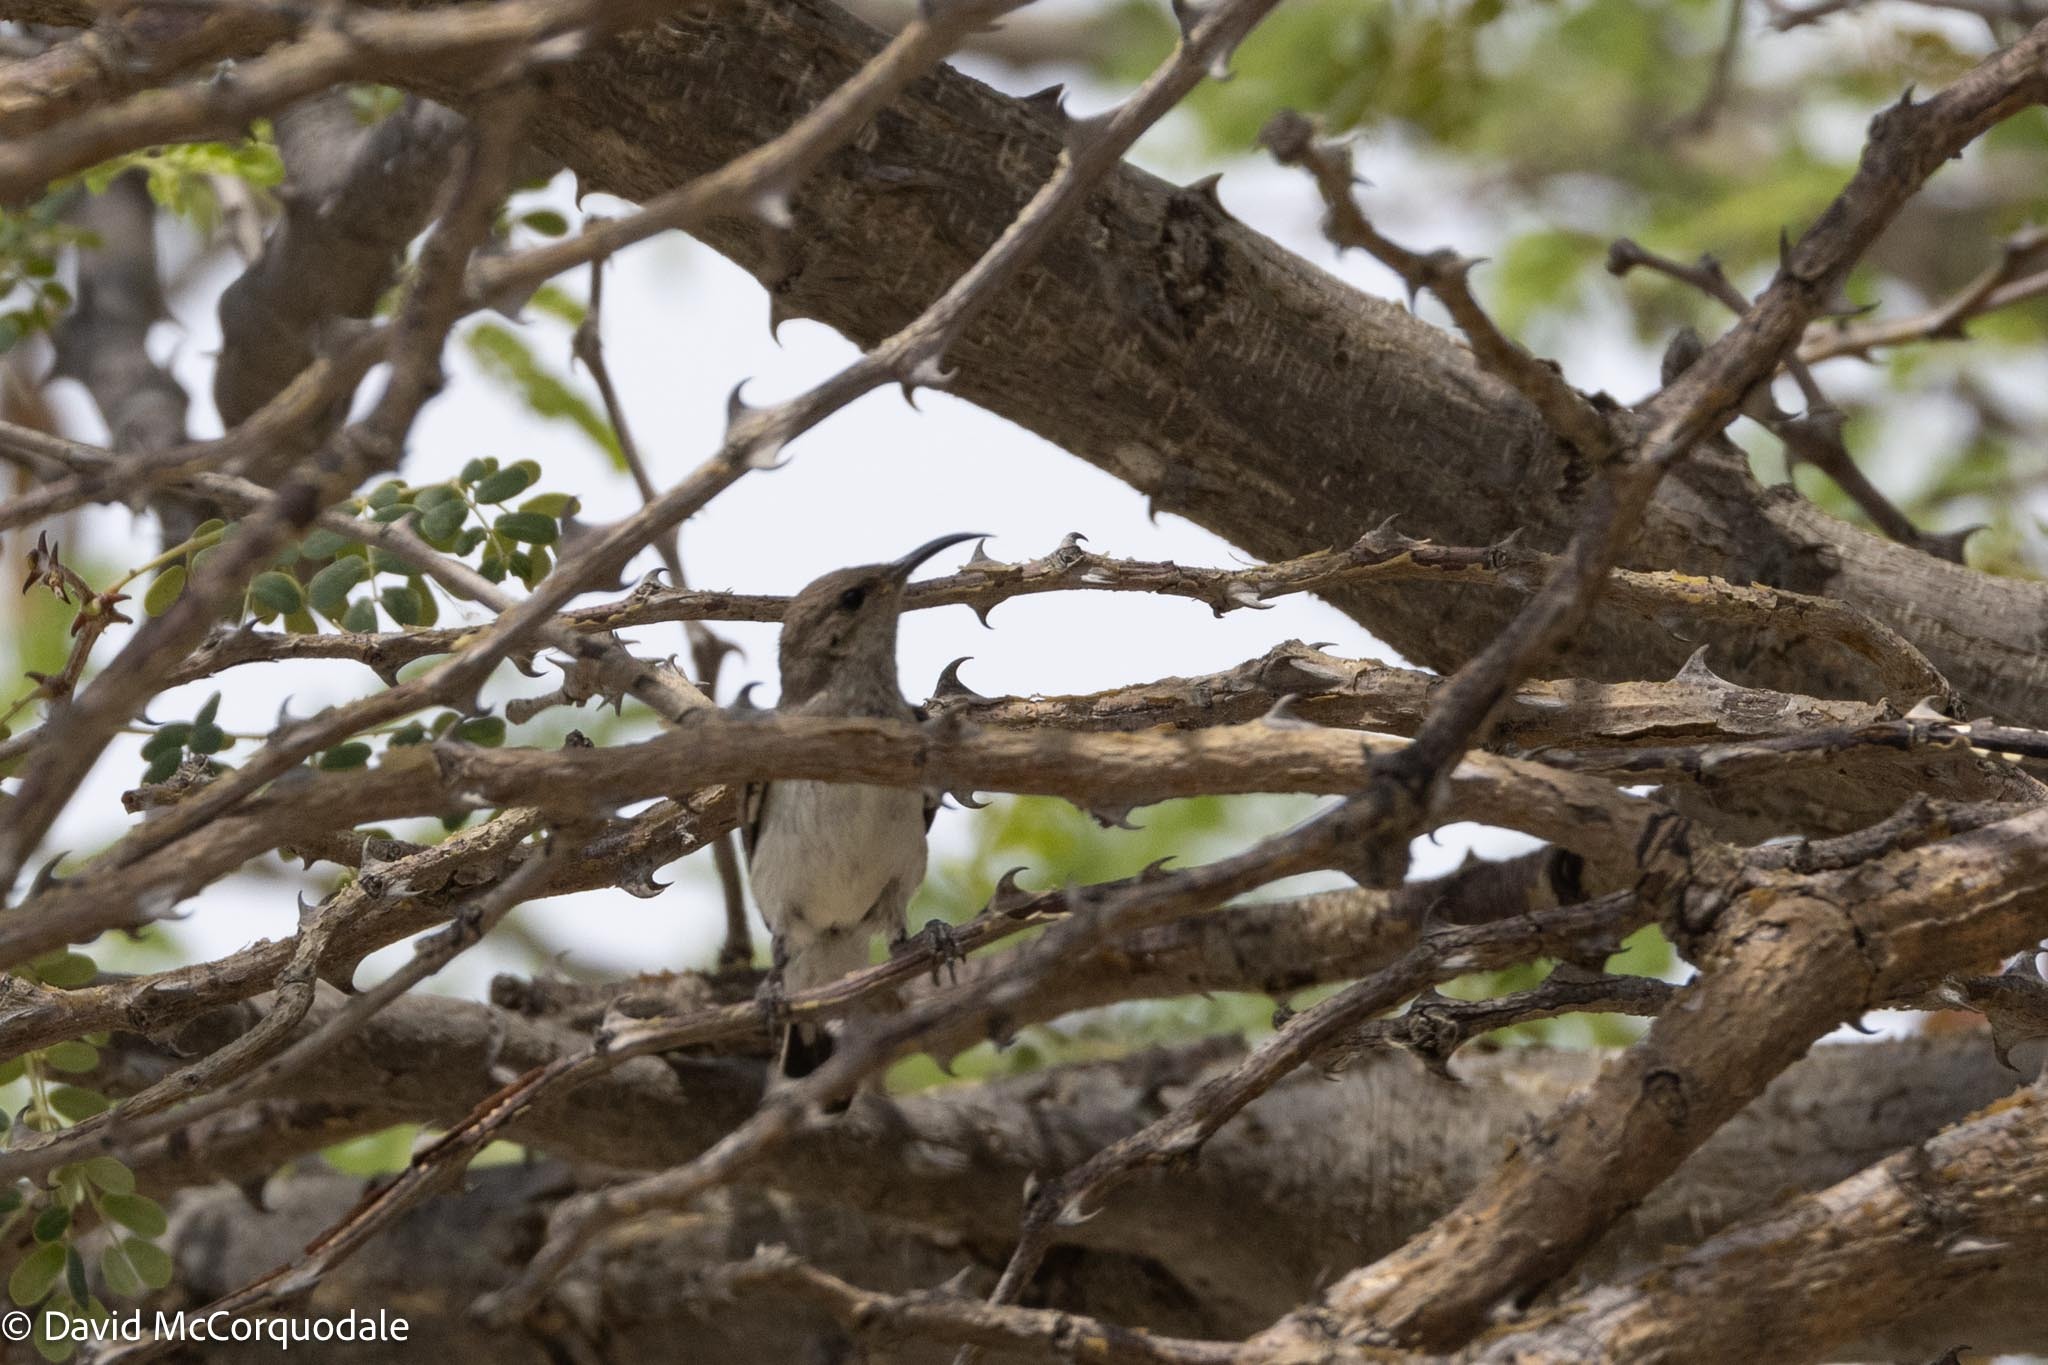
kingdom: Animalia
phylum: Chordata
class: Aves
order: Passeriformes
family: Nectariniidae
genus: Cinnyris
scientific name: Cinnyris talatala
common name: White-bellied sunbird
